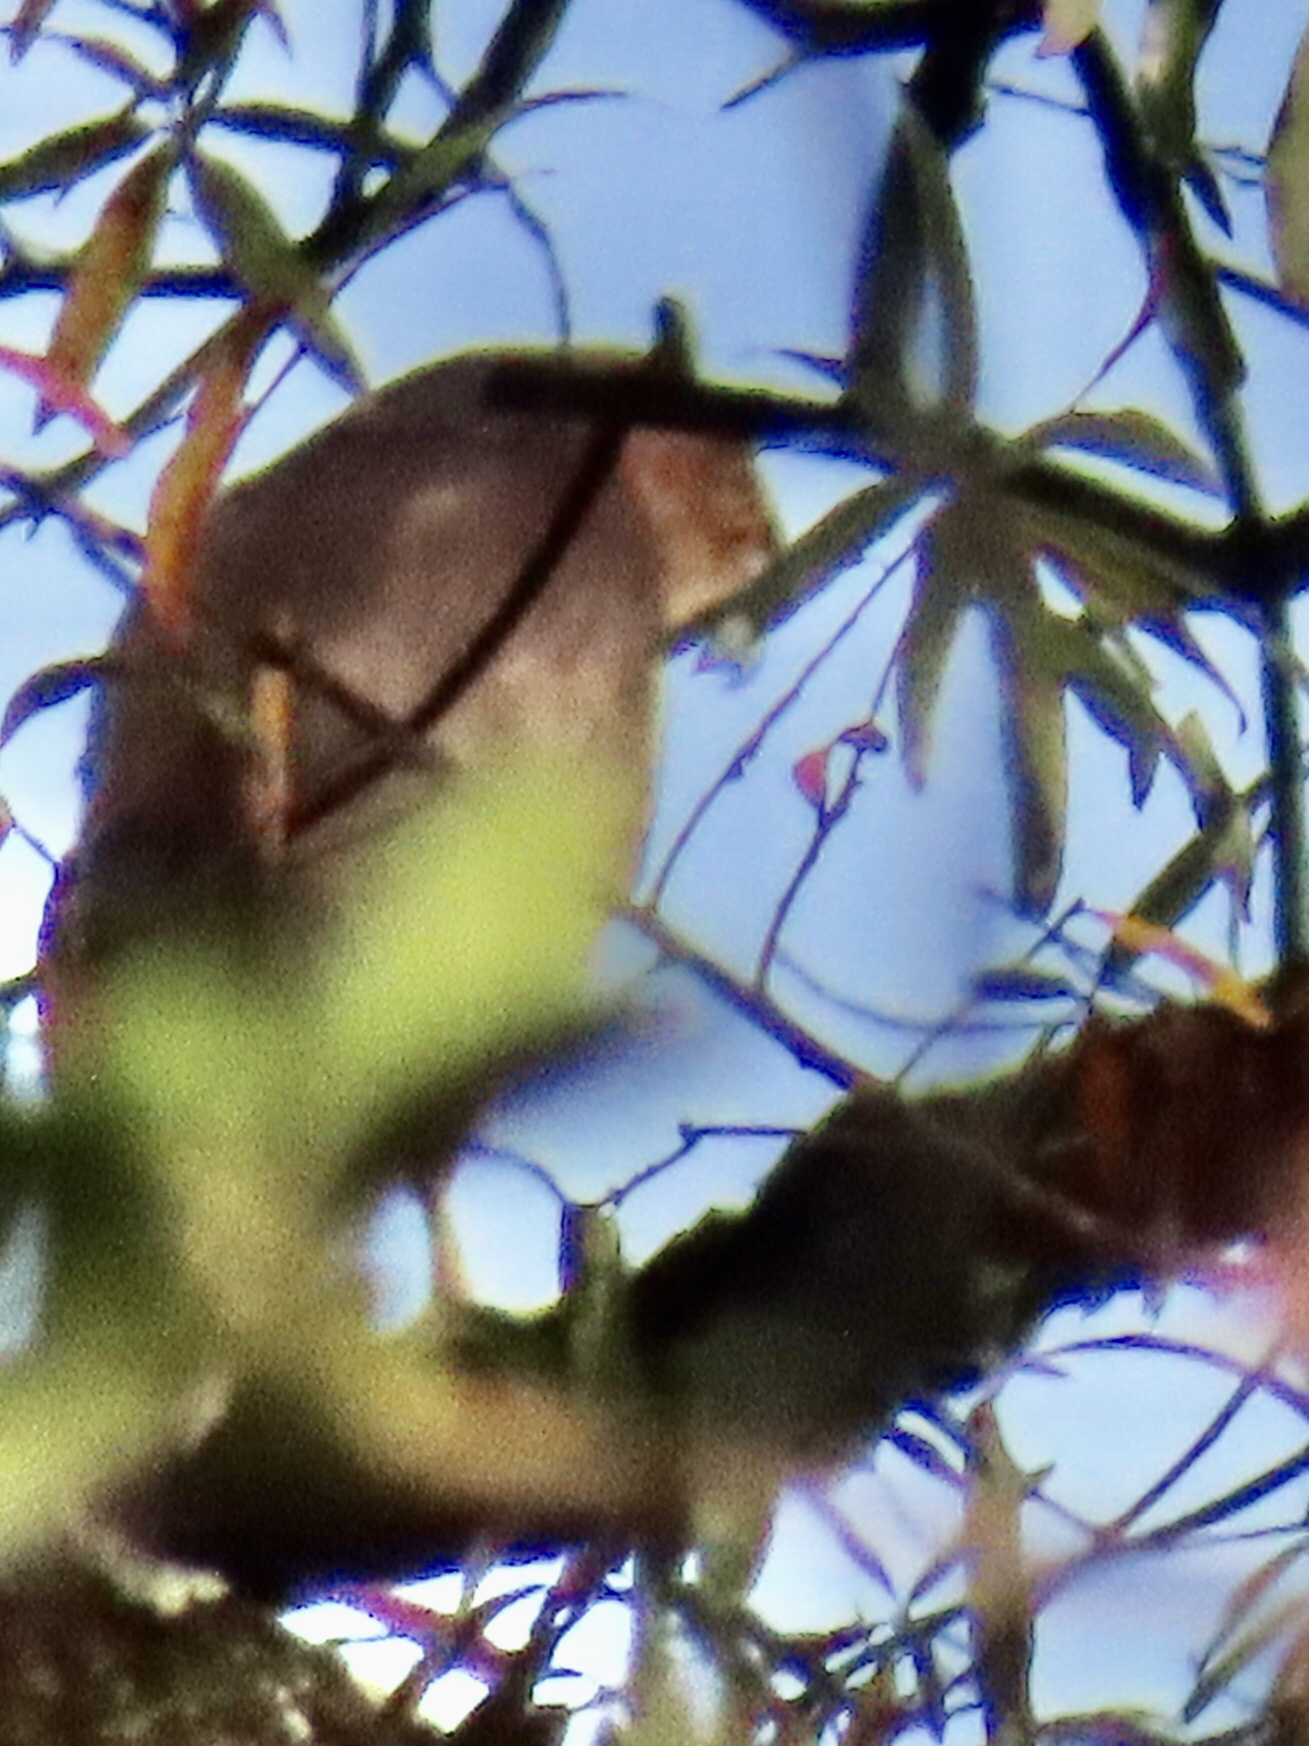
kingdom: Animalia
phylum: Chordata
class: Aves
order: Accipitriformes
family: Accipitridae
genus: Accipiter
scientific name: Accipiter cooperii
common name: Cooper's hawk
